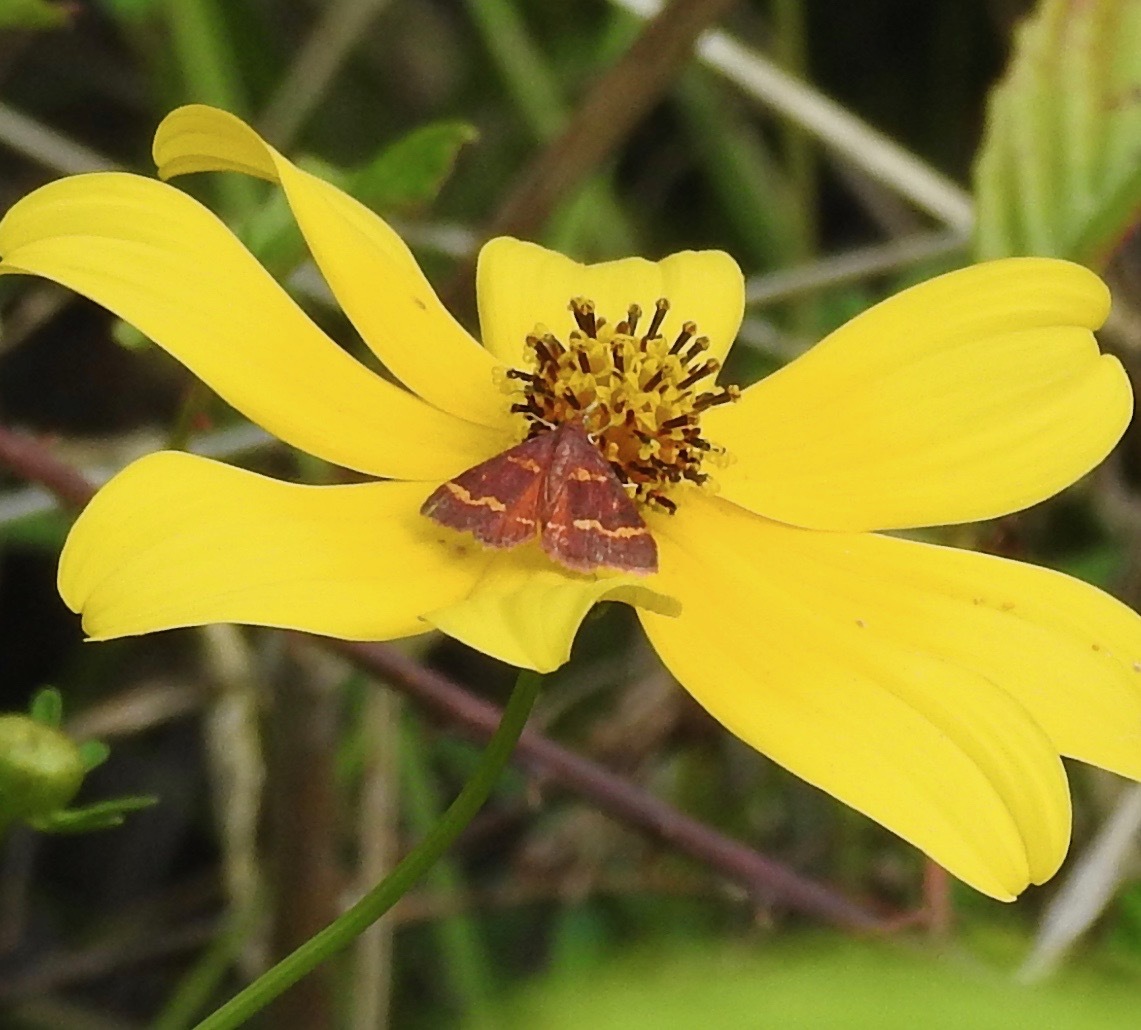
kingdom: Animalia
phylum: Arthropoda
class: Insecta
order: Lepidoptera
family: Crambidae
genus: Pyrausta
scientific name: Pyrausta tyralis
